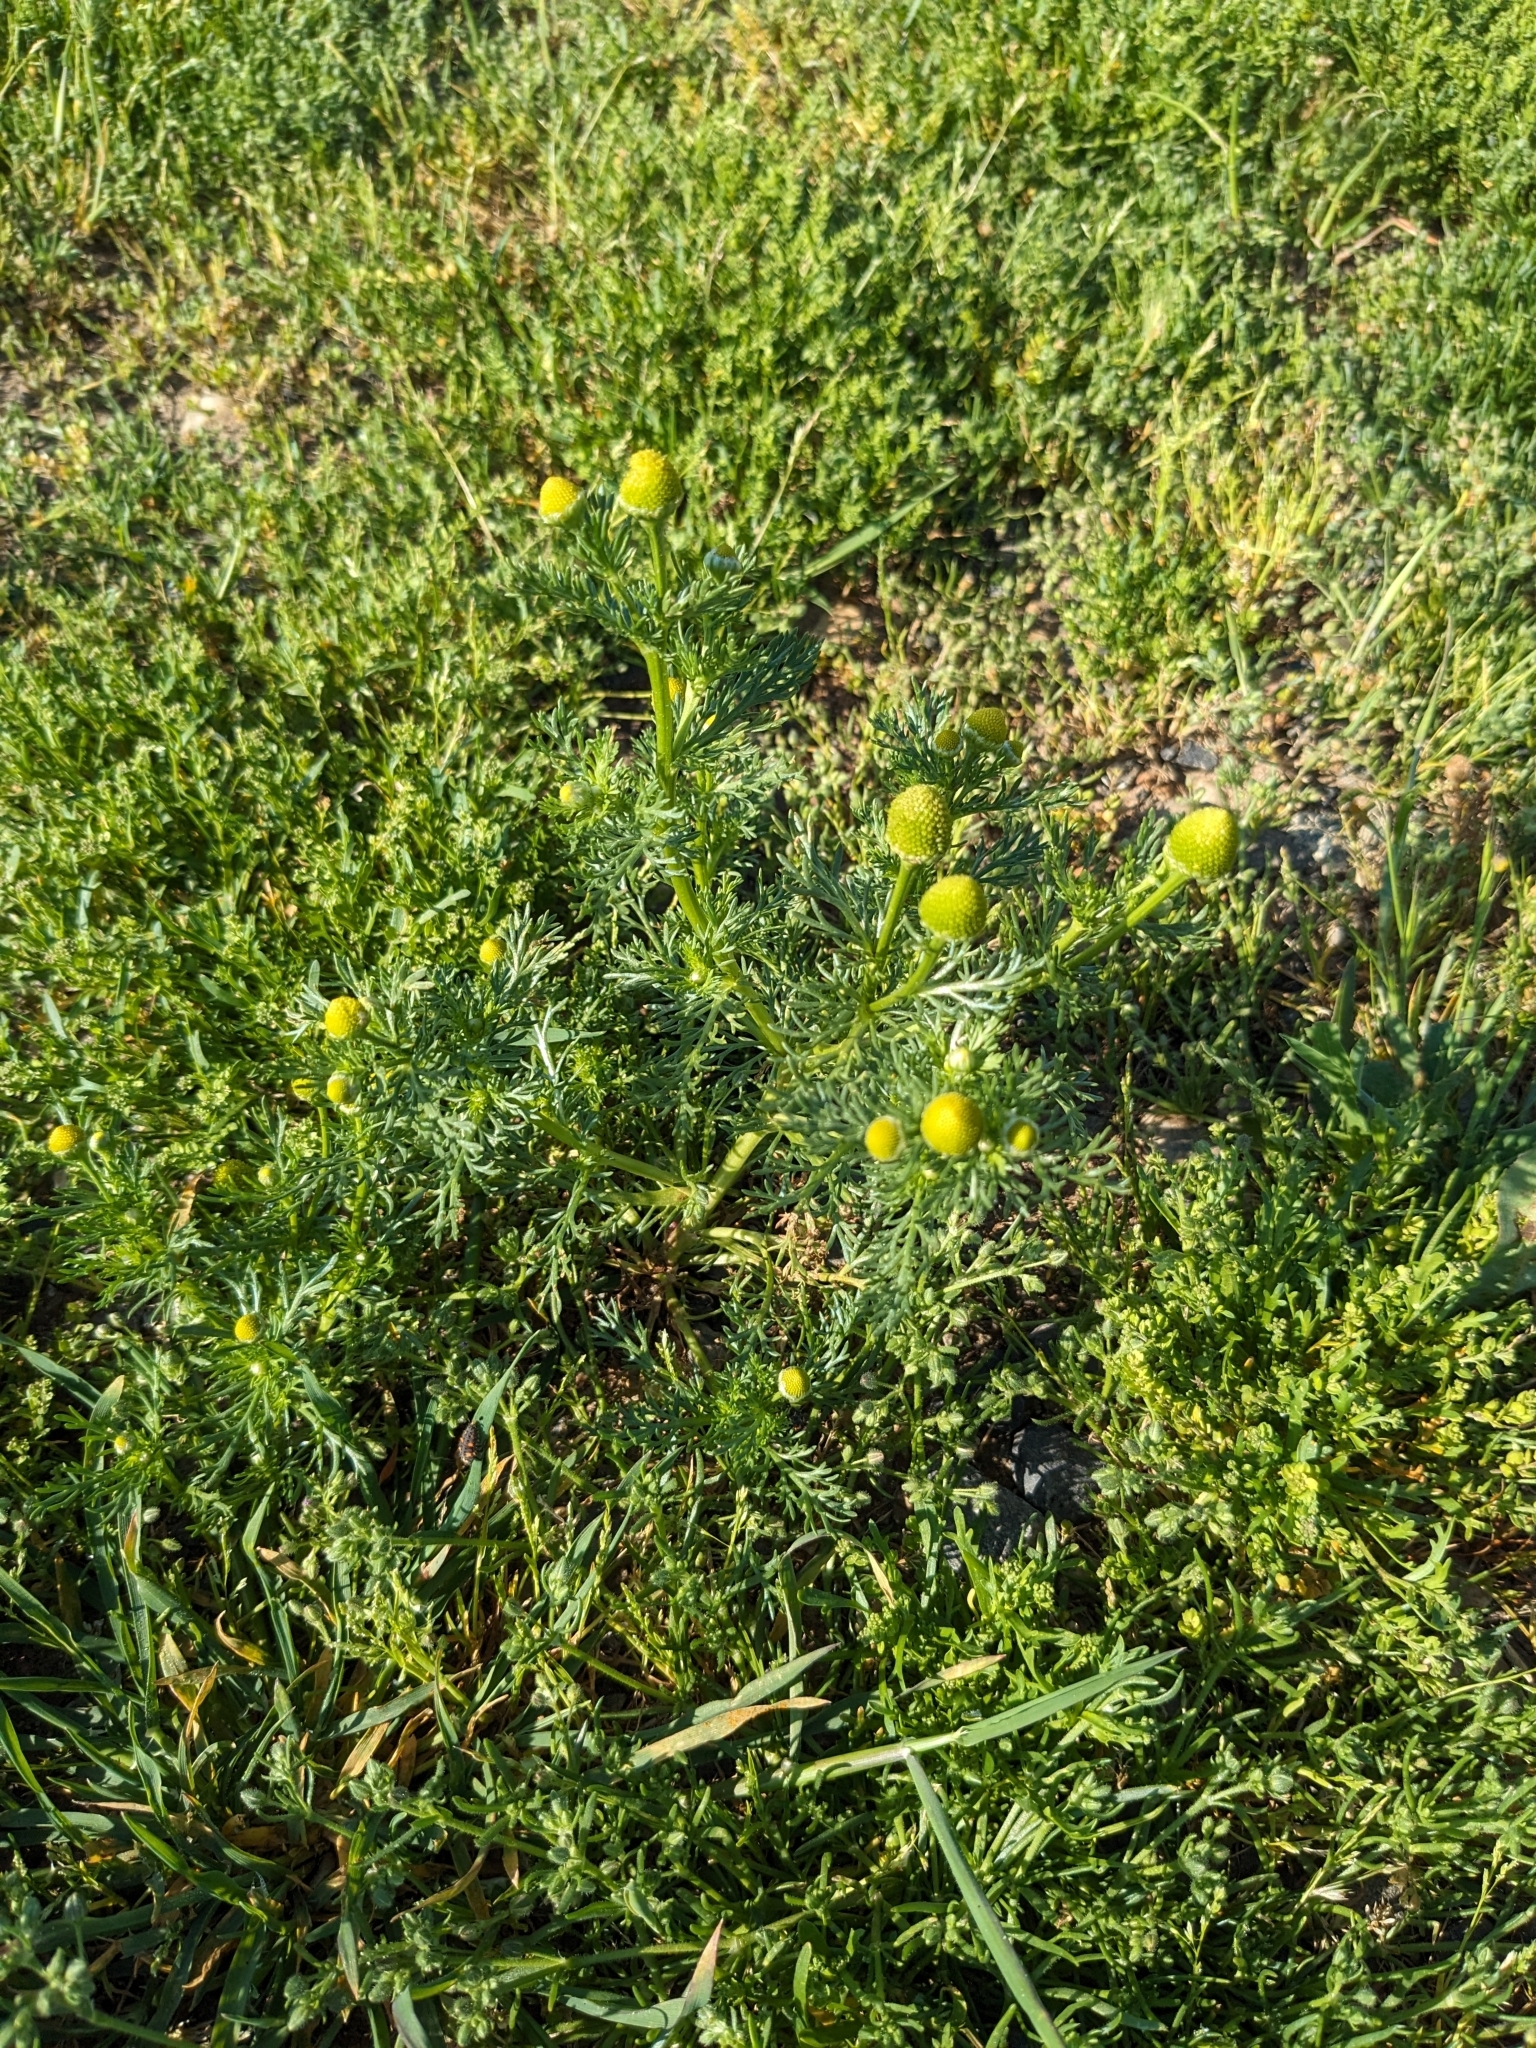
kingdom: Plantae
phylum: Tracheophyta
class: Magnoliopsida
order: Asterales
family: Asteraceae
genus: Matricaria
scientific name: Matricaria discoidea
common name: Disc mayweed
